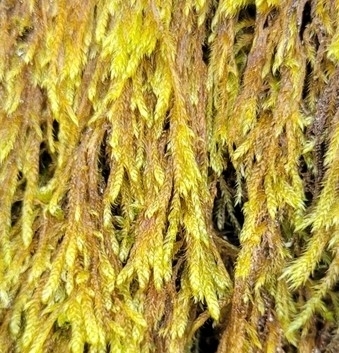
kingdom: Plantae
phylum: Bryophyta
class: Bryopsida
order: Hypnales
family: Hypnaceae
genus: Hypnum
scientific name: Hypnum cupressiforme
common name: Cypress-leaved plait-moss
